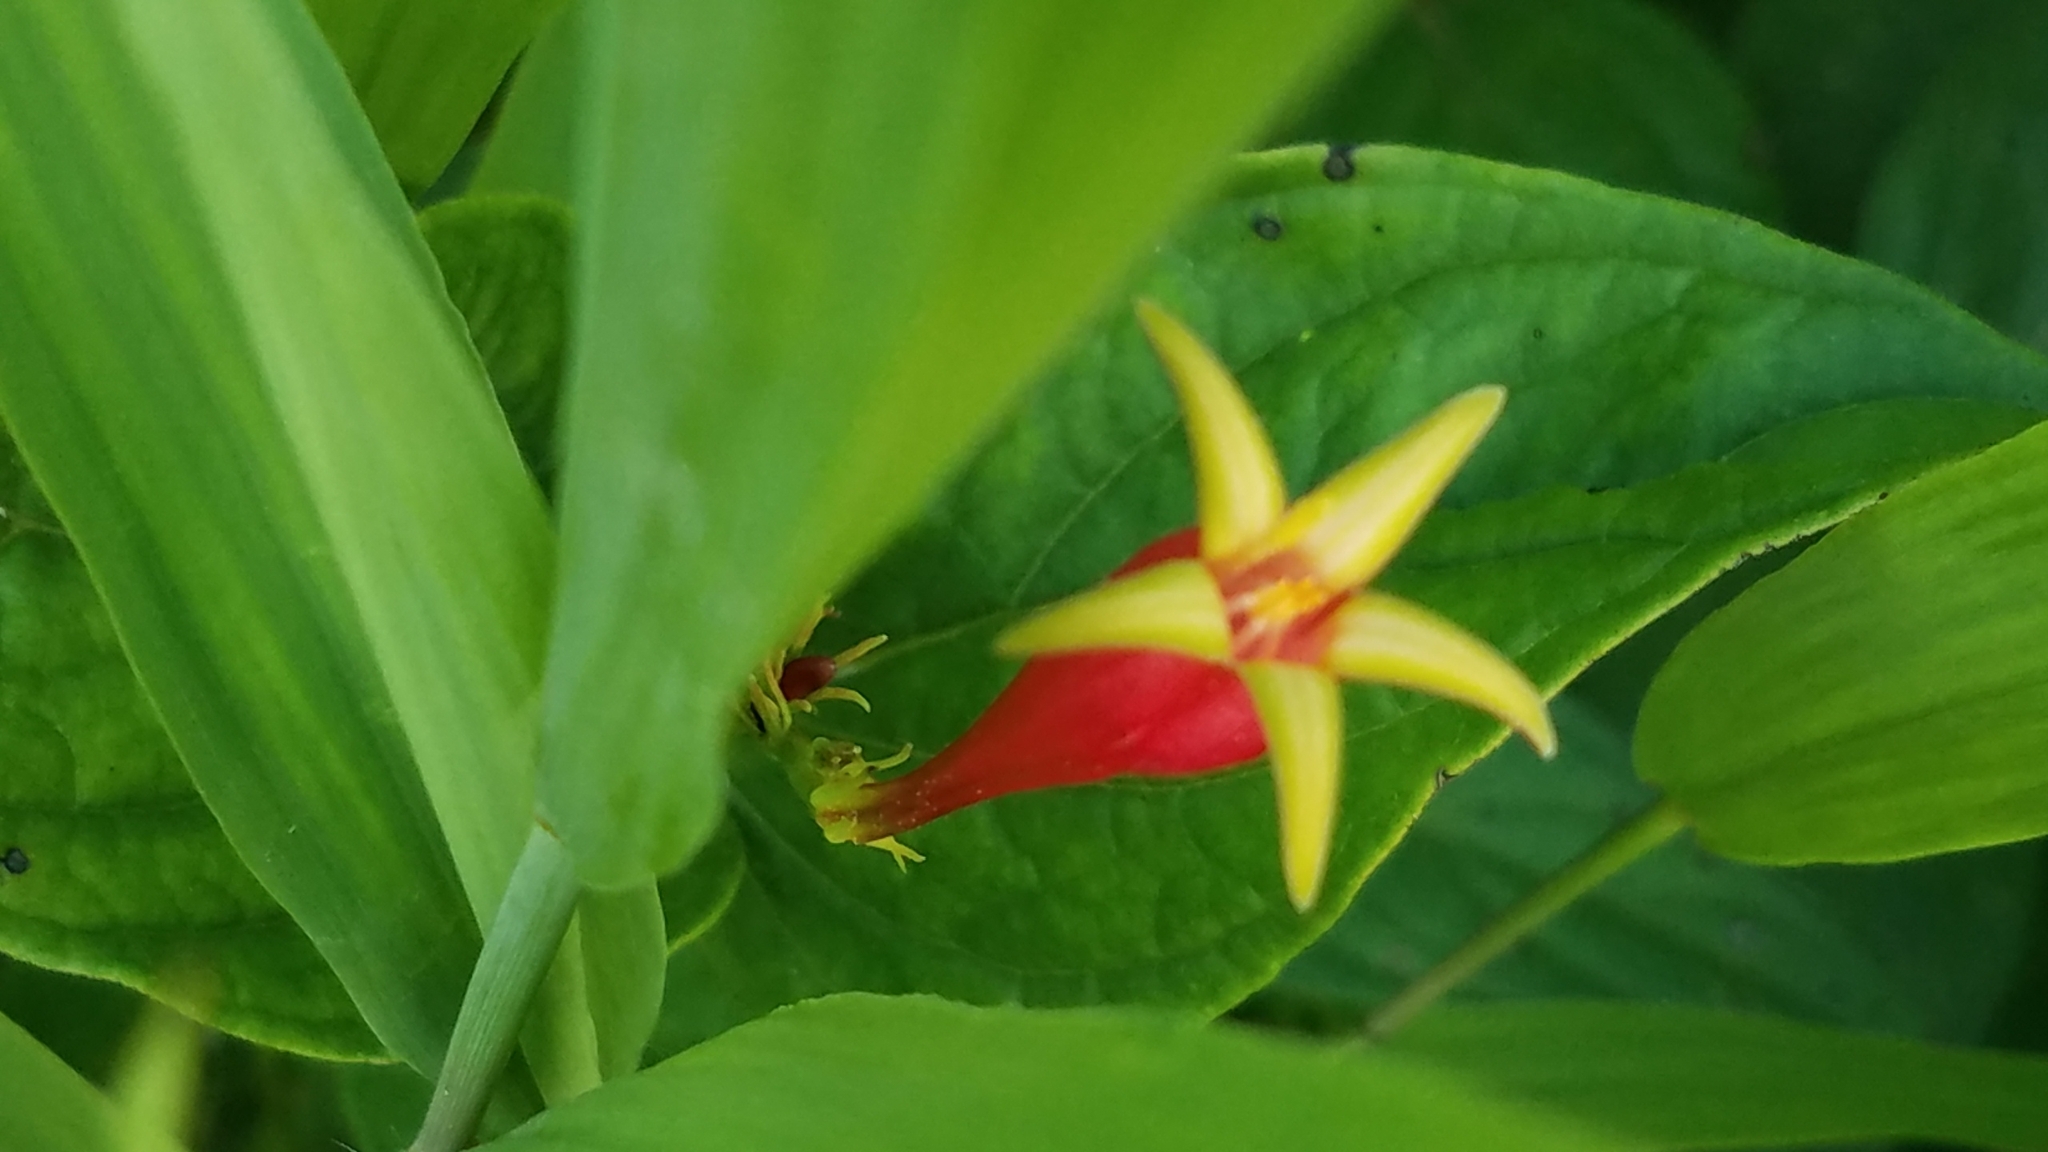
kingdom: Plantae
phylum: Tracheophyta
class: Magnoliopsida
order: Gentianales
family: Loganiaceae
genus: Spigelia
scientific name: Spigelia marilandica
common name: Indian-pink
